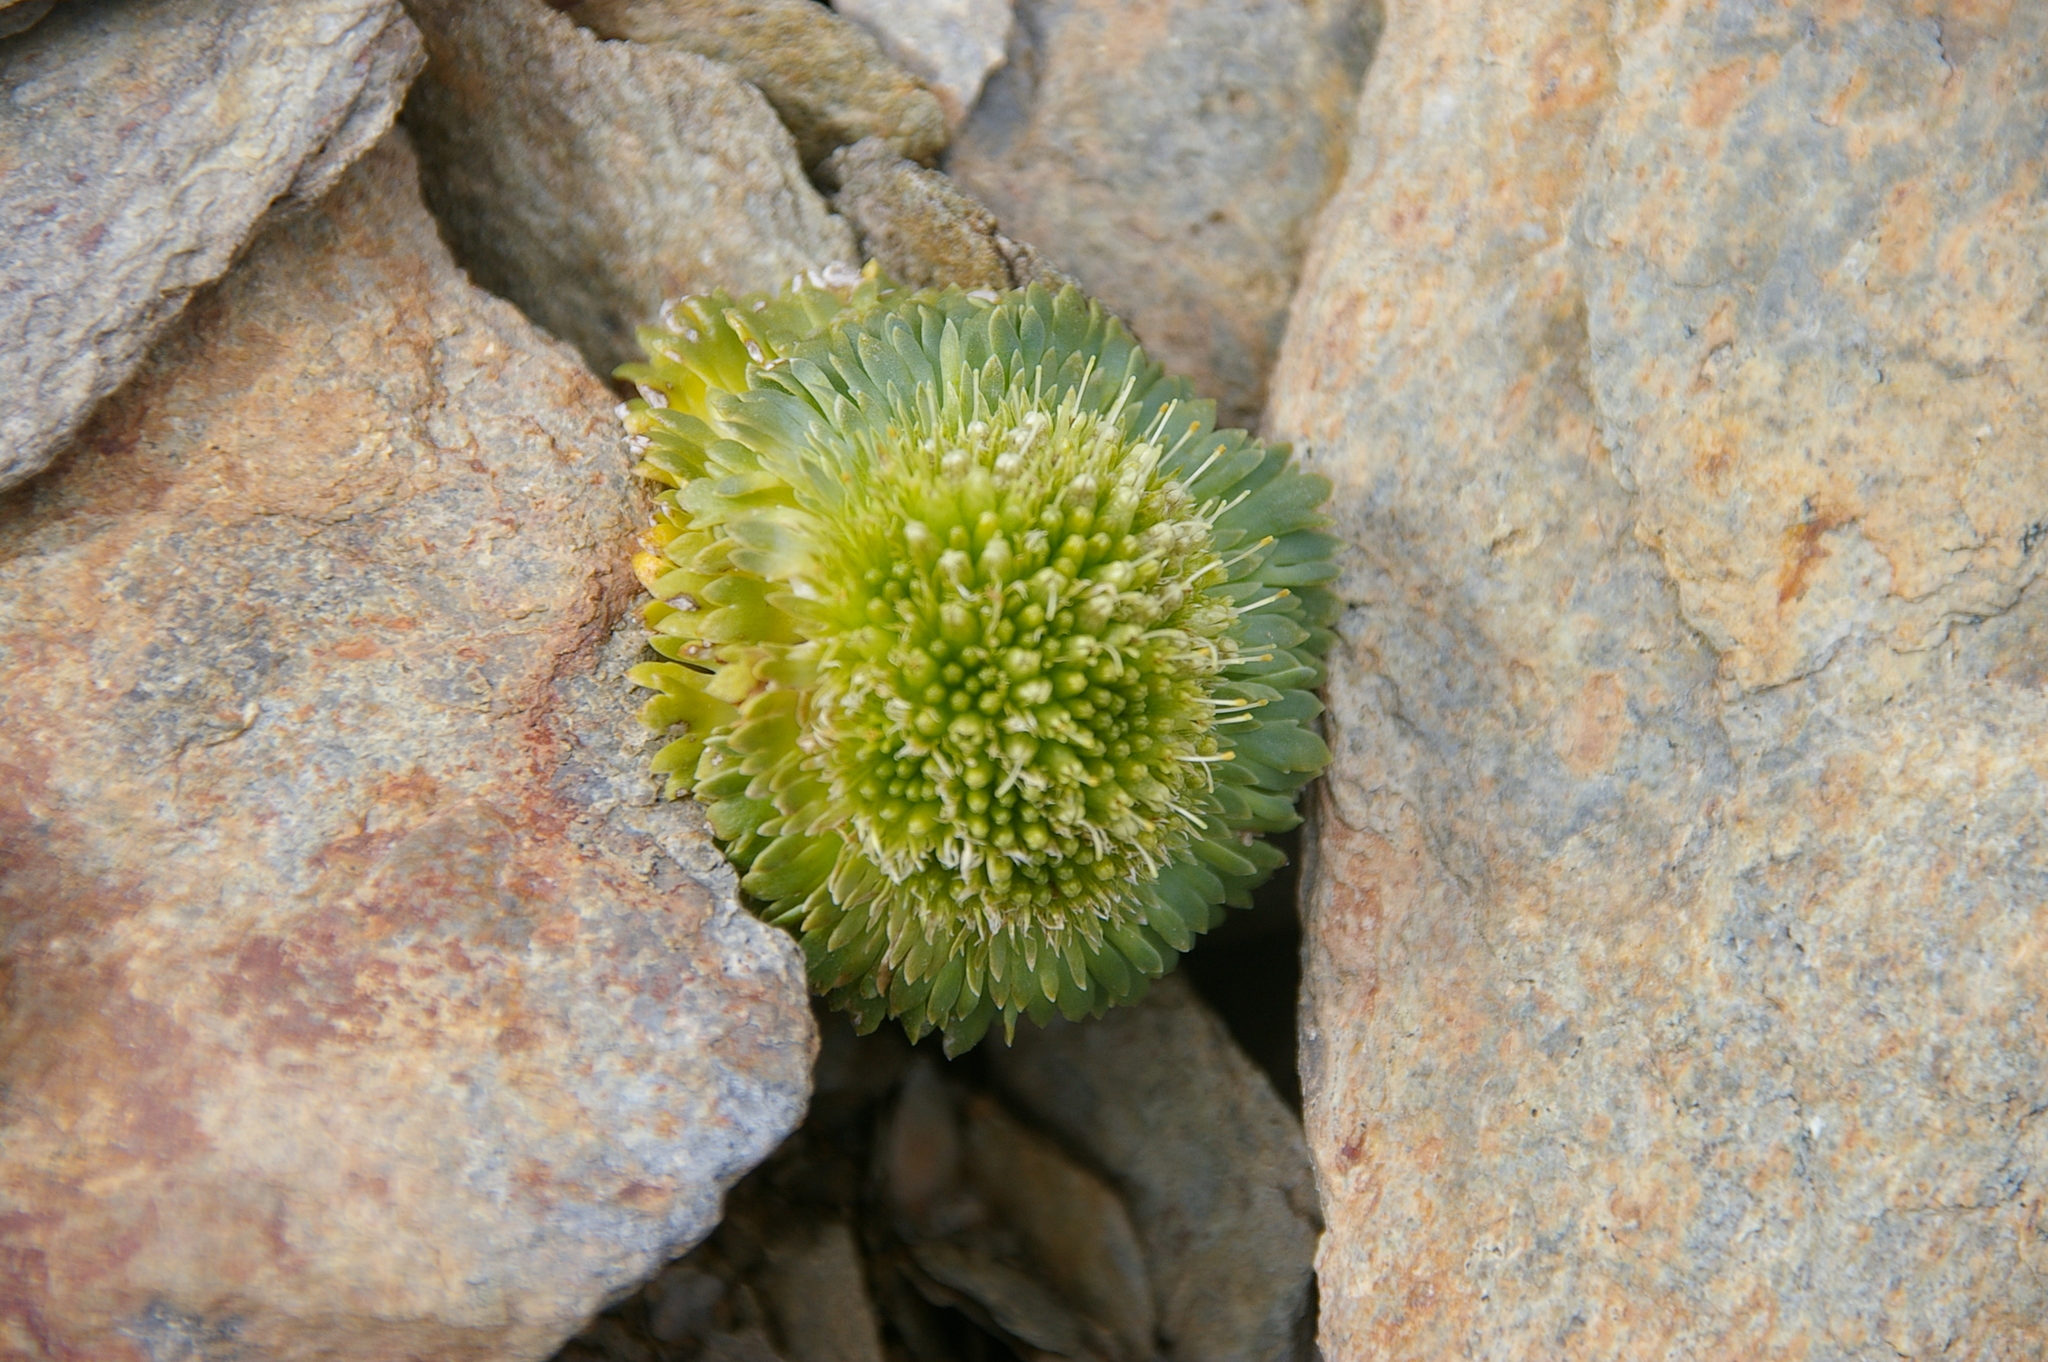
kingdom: Plantae
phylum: Tracheophyta
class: Magnoliopsida
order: Asterales
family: Calyceraceae
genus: Moschopsis
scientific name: Moschopsis rosulata
